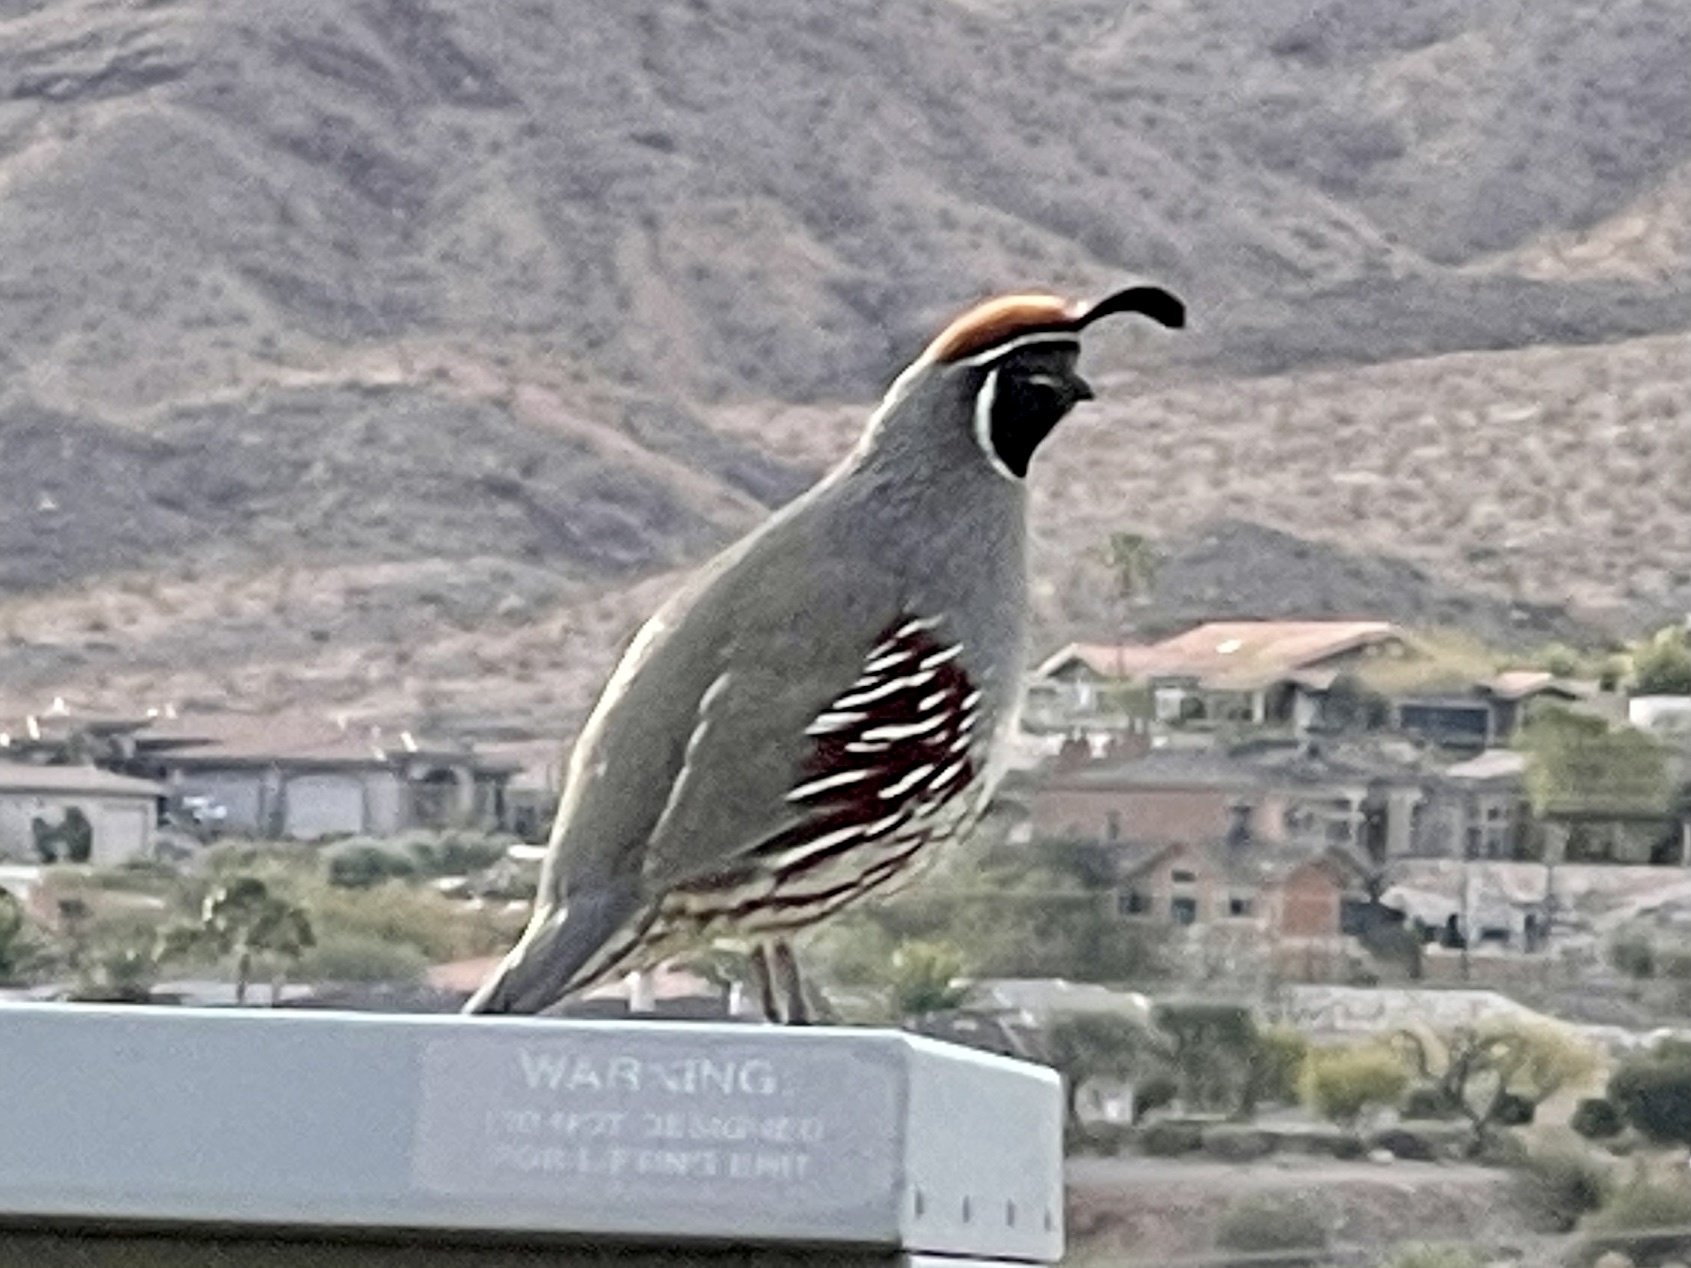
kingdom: Animalia
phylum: Chordata
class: Aves
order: Galliformes
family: Odontophoridae
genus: Callipepla
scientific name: Callipepla gambelii
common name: Gambel's quail
